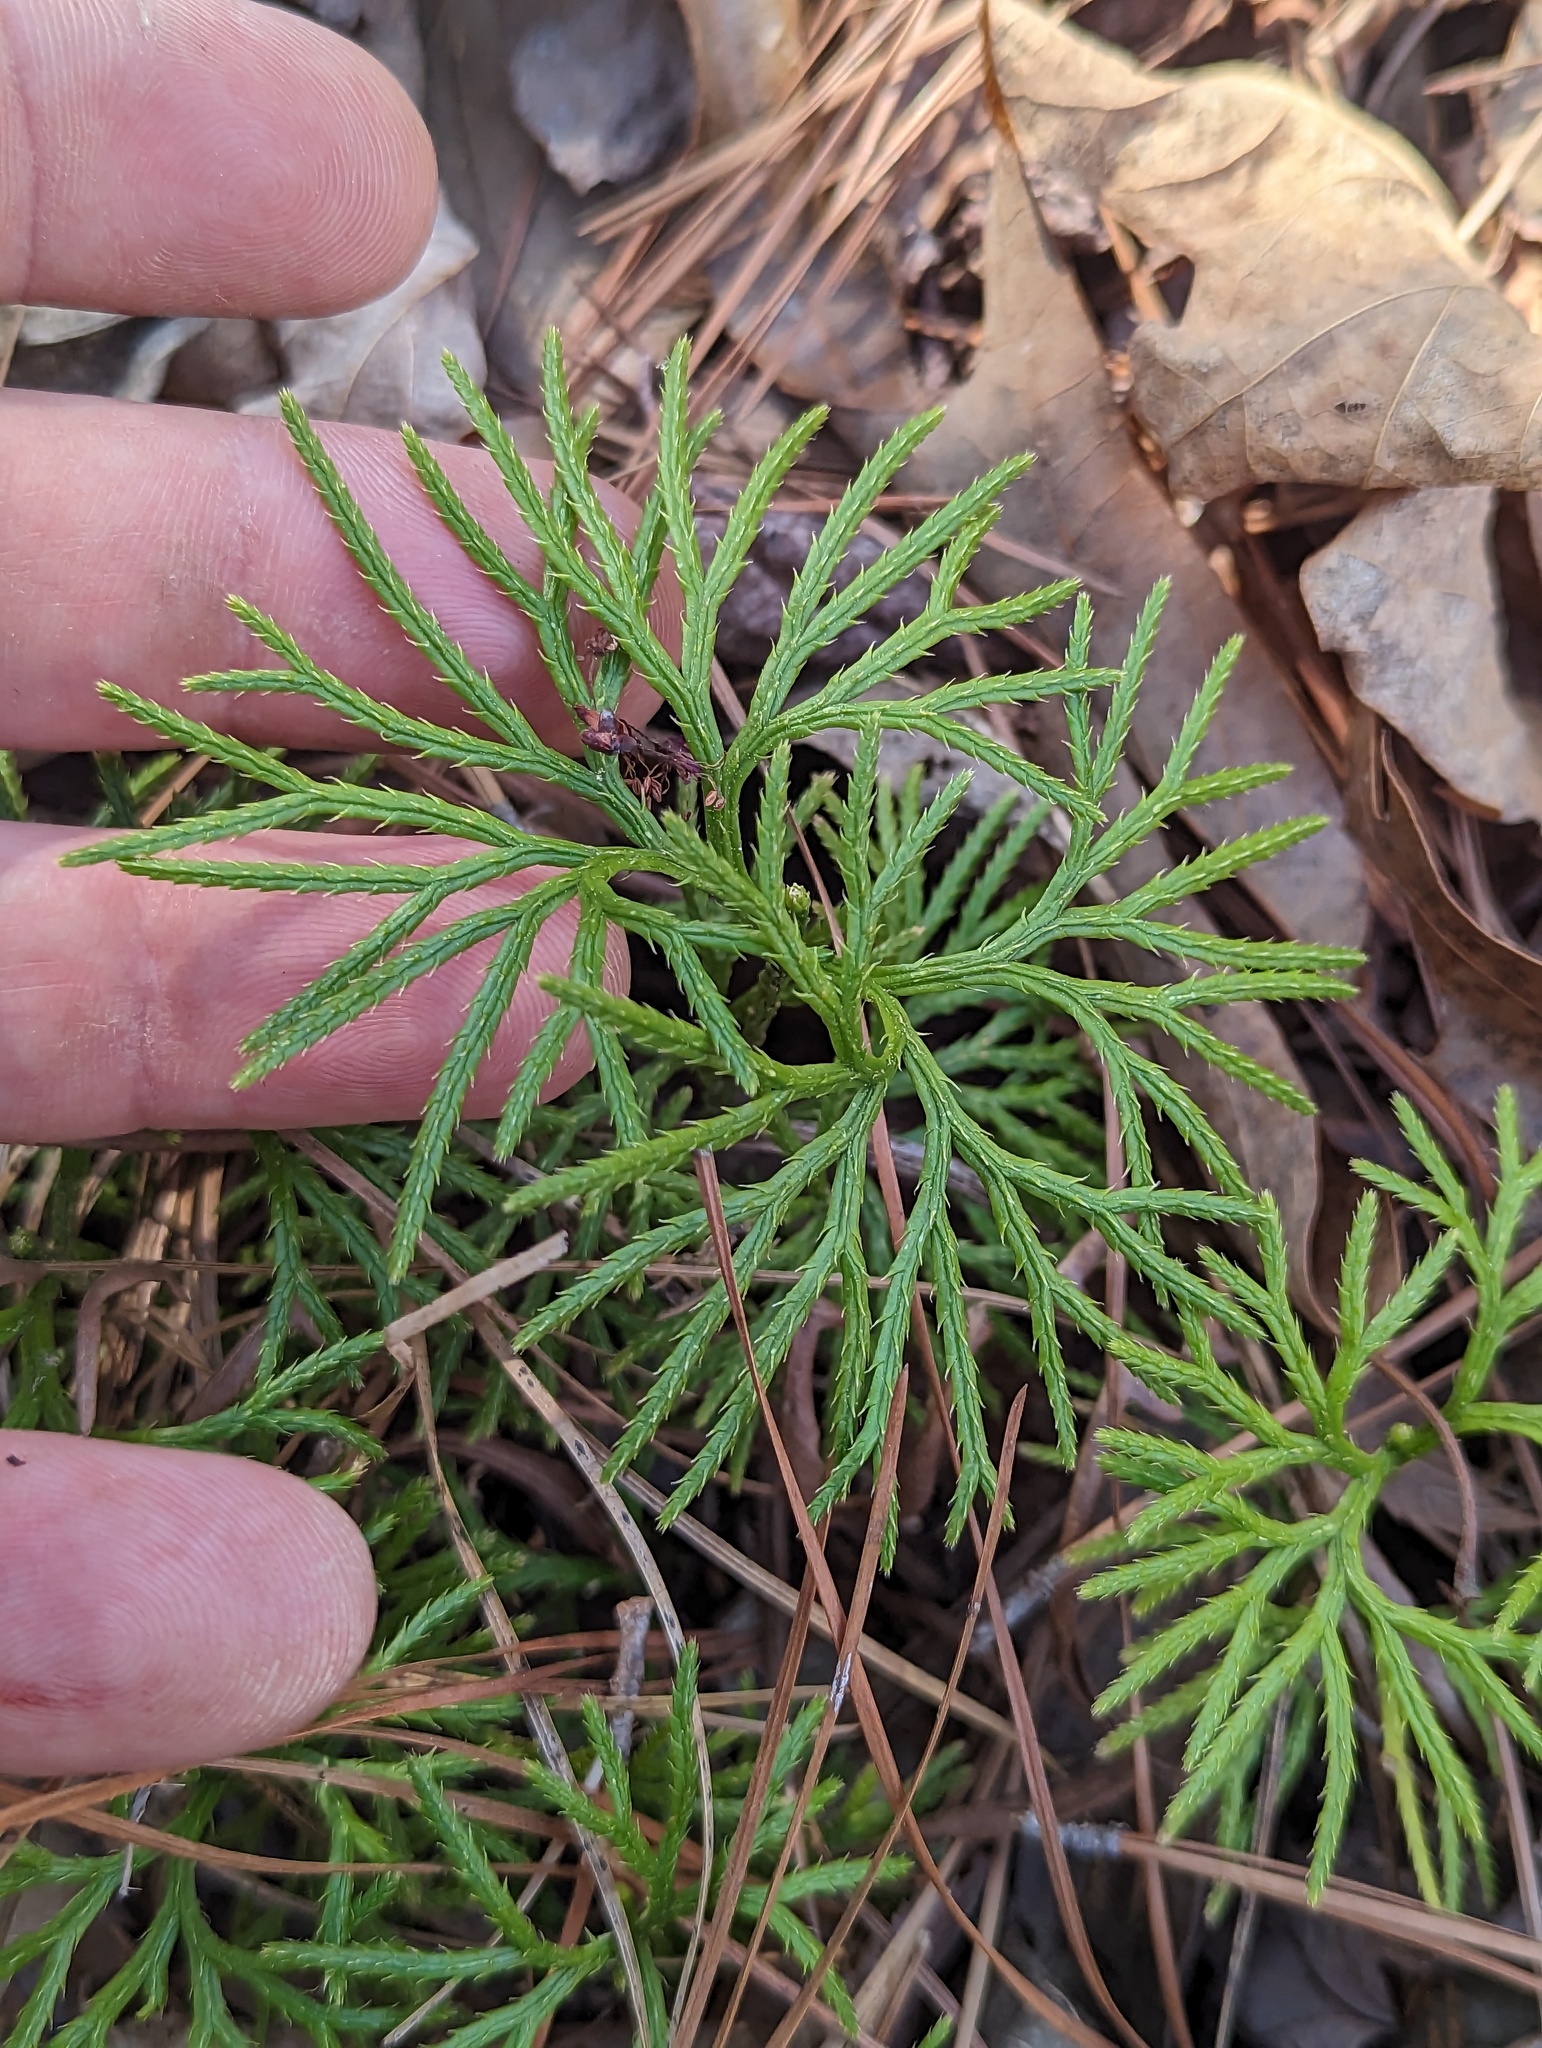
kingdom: Plantae
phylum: Tracheophyta
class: Lycopodiopsida
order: Lycopodiales
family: Lycopodiaceae
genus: Diphasiastrum
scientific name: Diphasiastrum digitatum
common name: Southern running-pine
